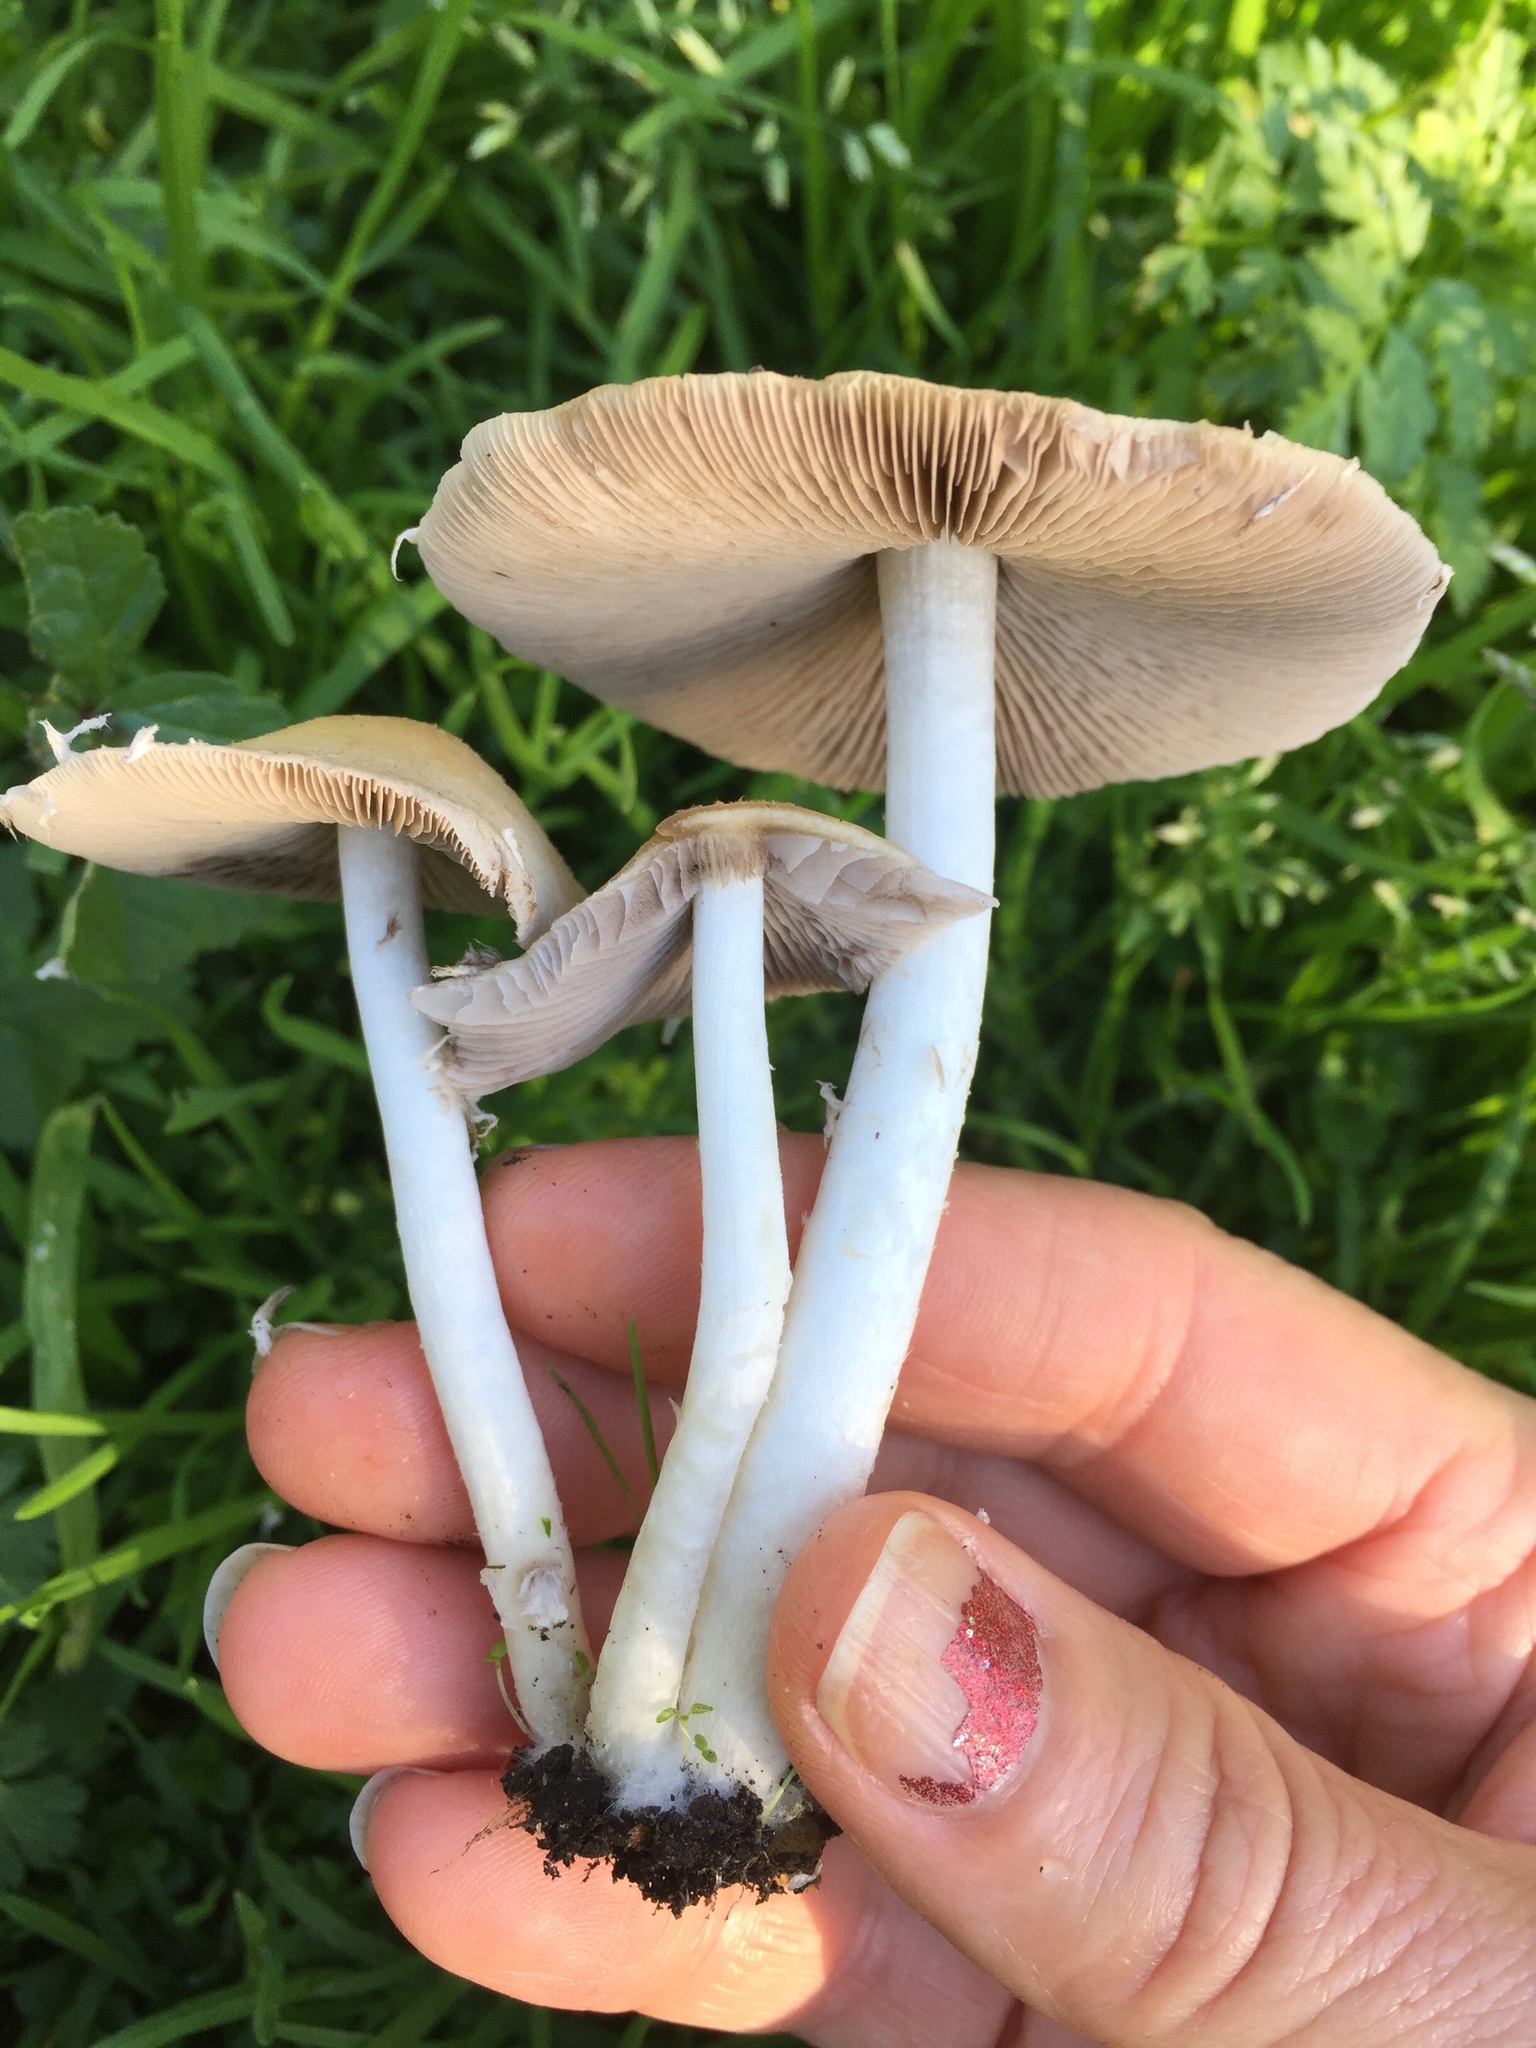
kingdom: Fungi
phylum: Basidiomycota
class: Agaricomycetes
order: Agaricales
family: Psathyrellaceae
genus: Candolleomyces
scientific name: Candolleomyces candolleanus
